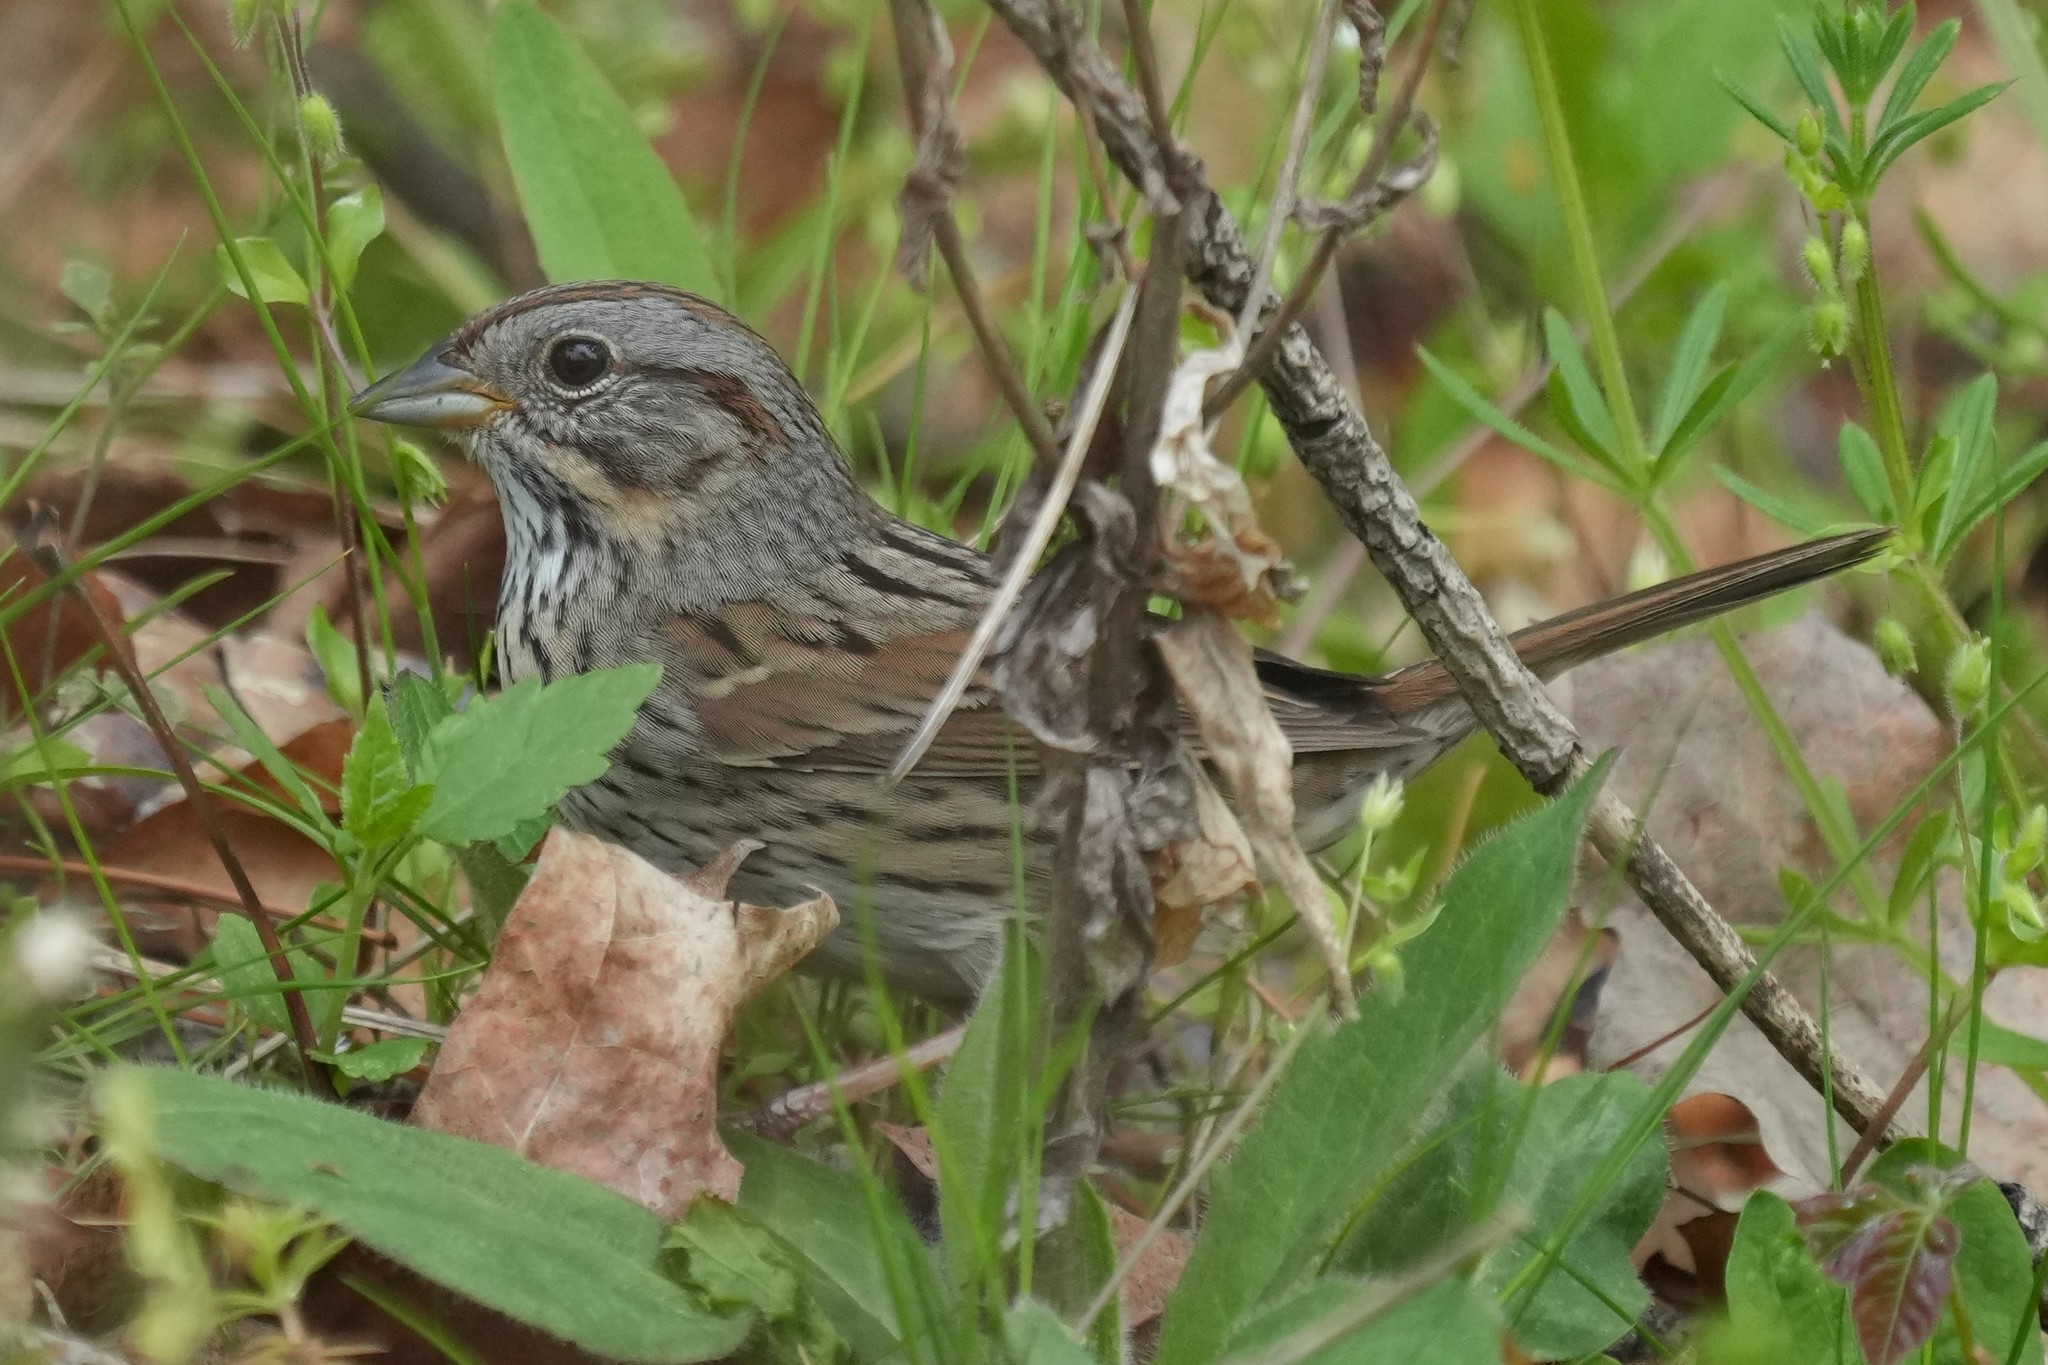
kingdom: Animalia
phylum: Chordata
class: Aves
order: Passeriformes
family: Passerellidae
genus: Melospiza
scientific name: Melospiza lincolnii
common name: Lincoln's sparrow
